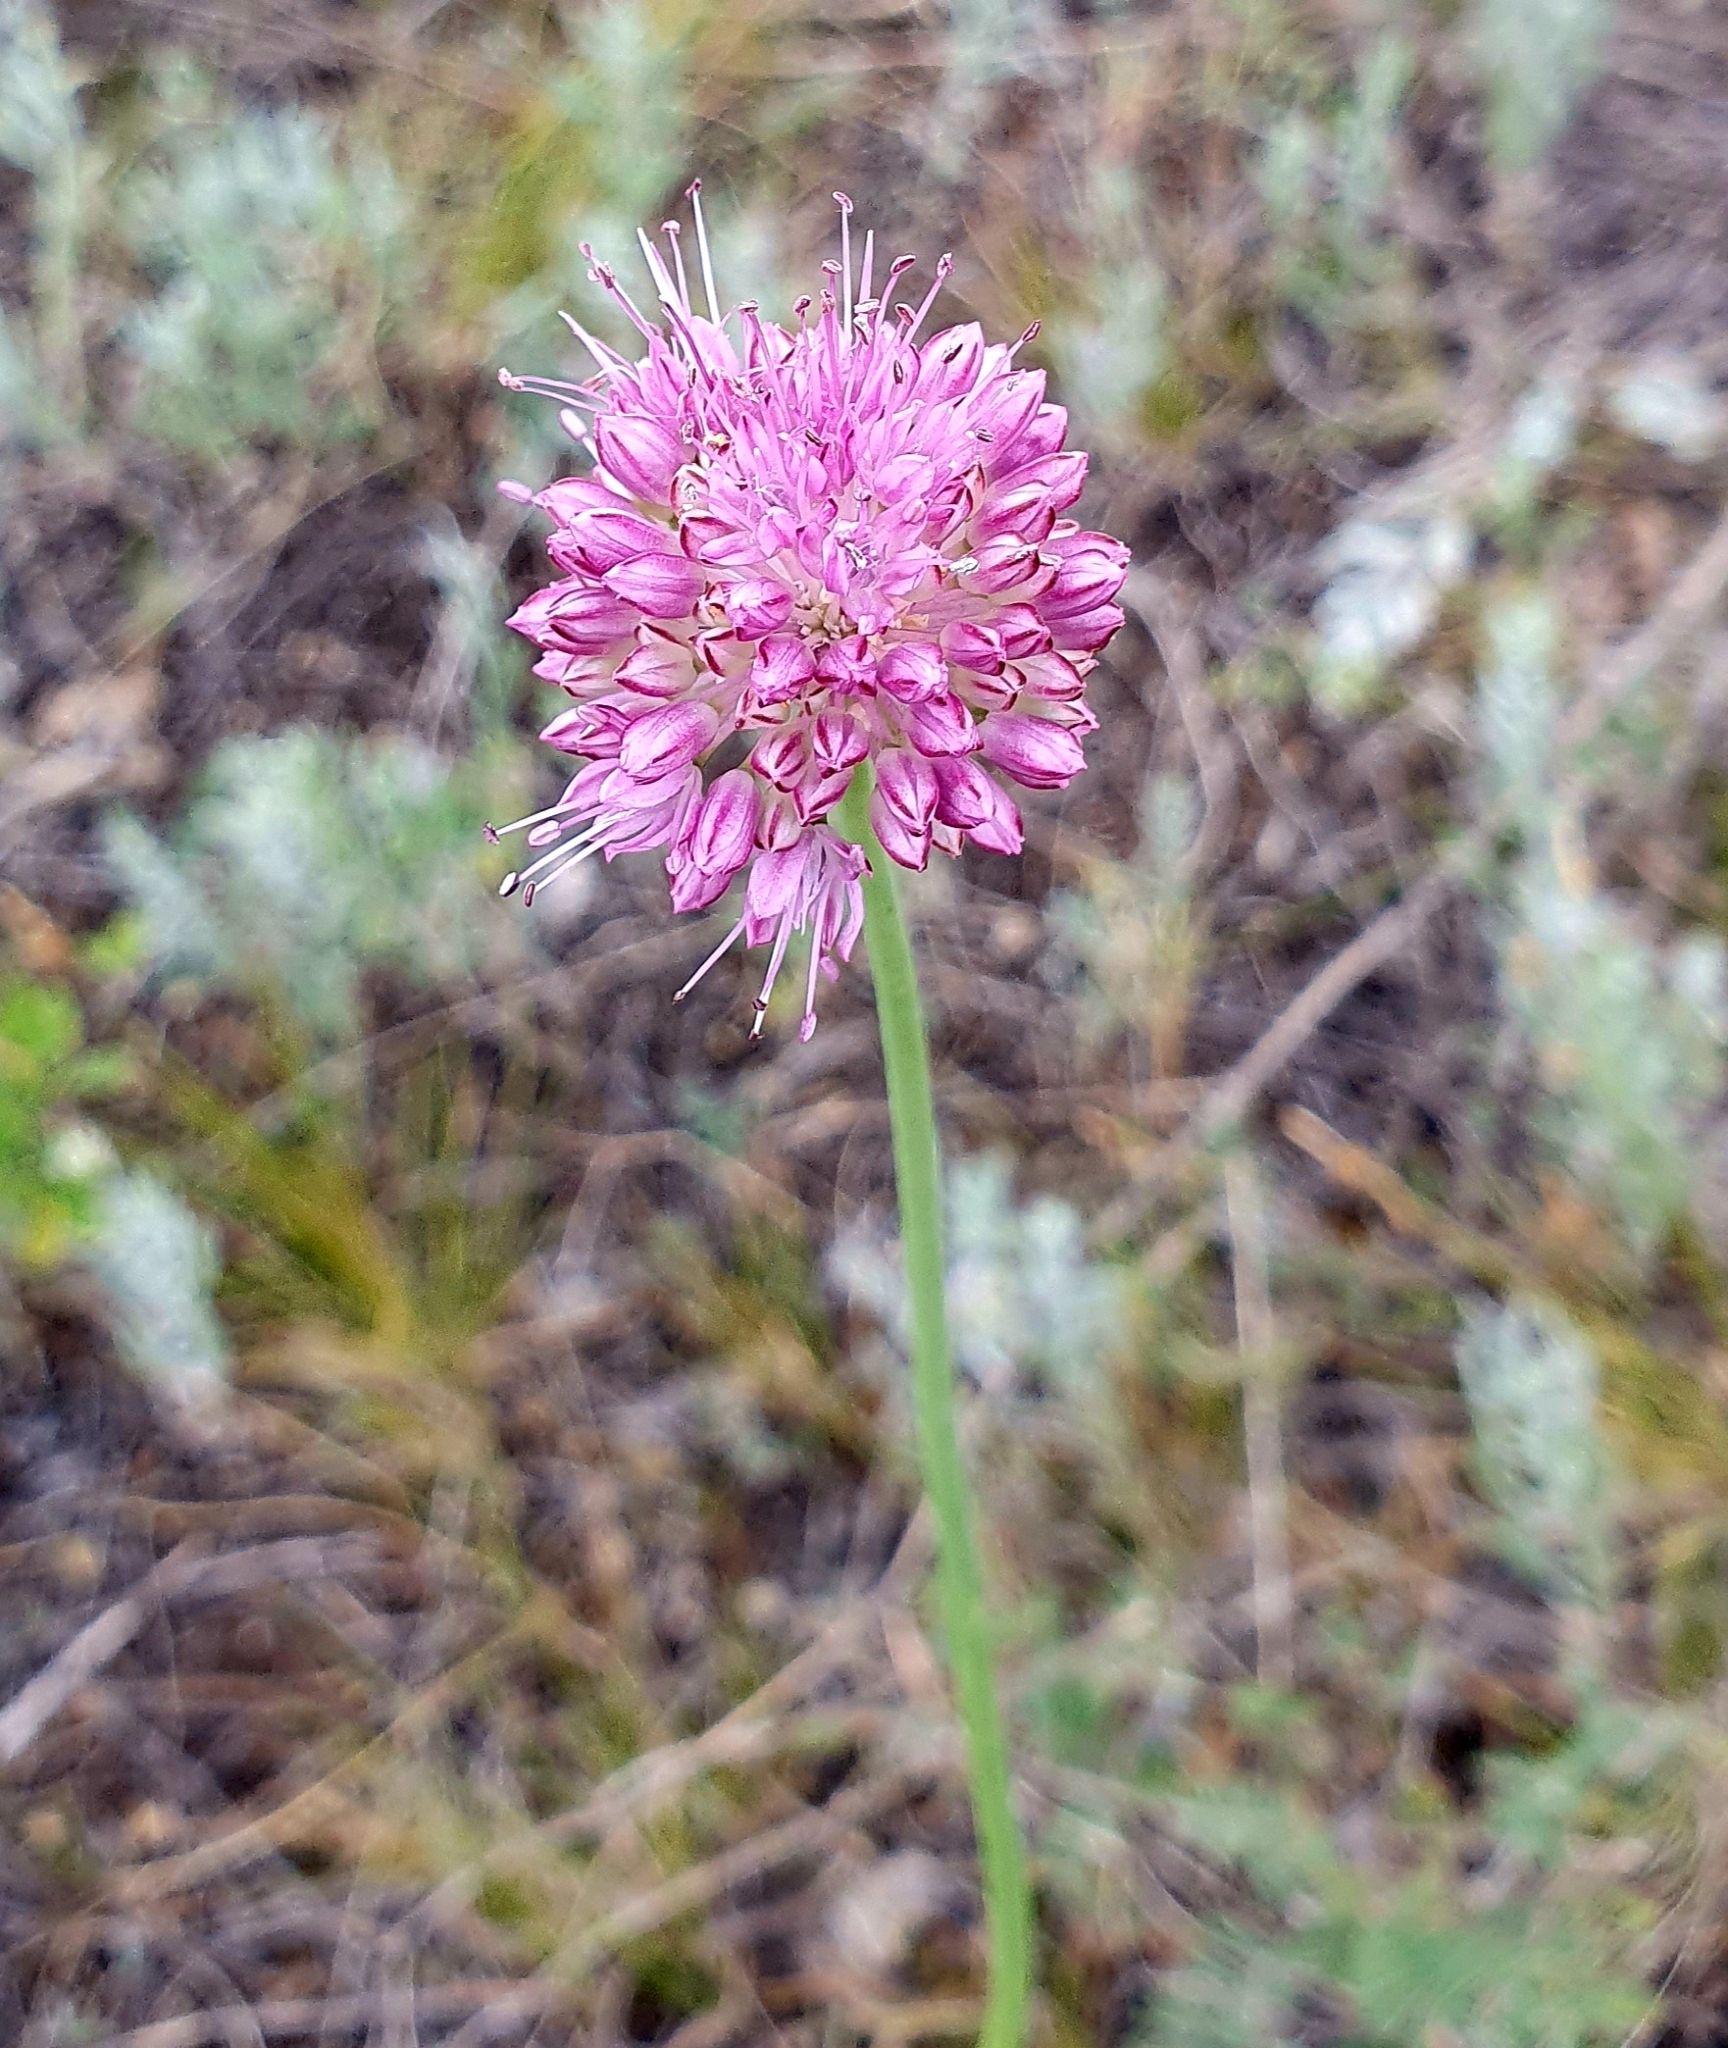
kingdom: Plantae
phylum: Tracheophyta
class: Liliopsida
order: Asparagales
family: Amaryllidaceae
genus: Allium
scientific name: Allium lineare
